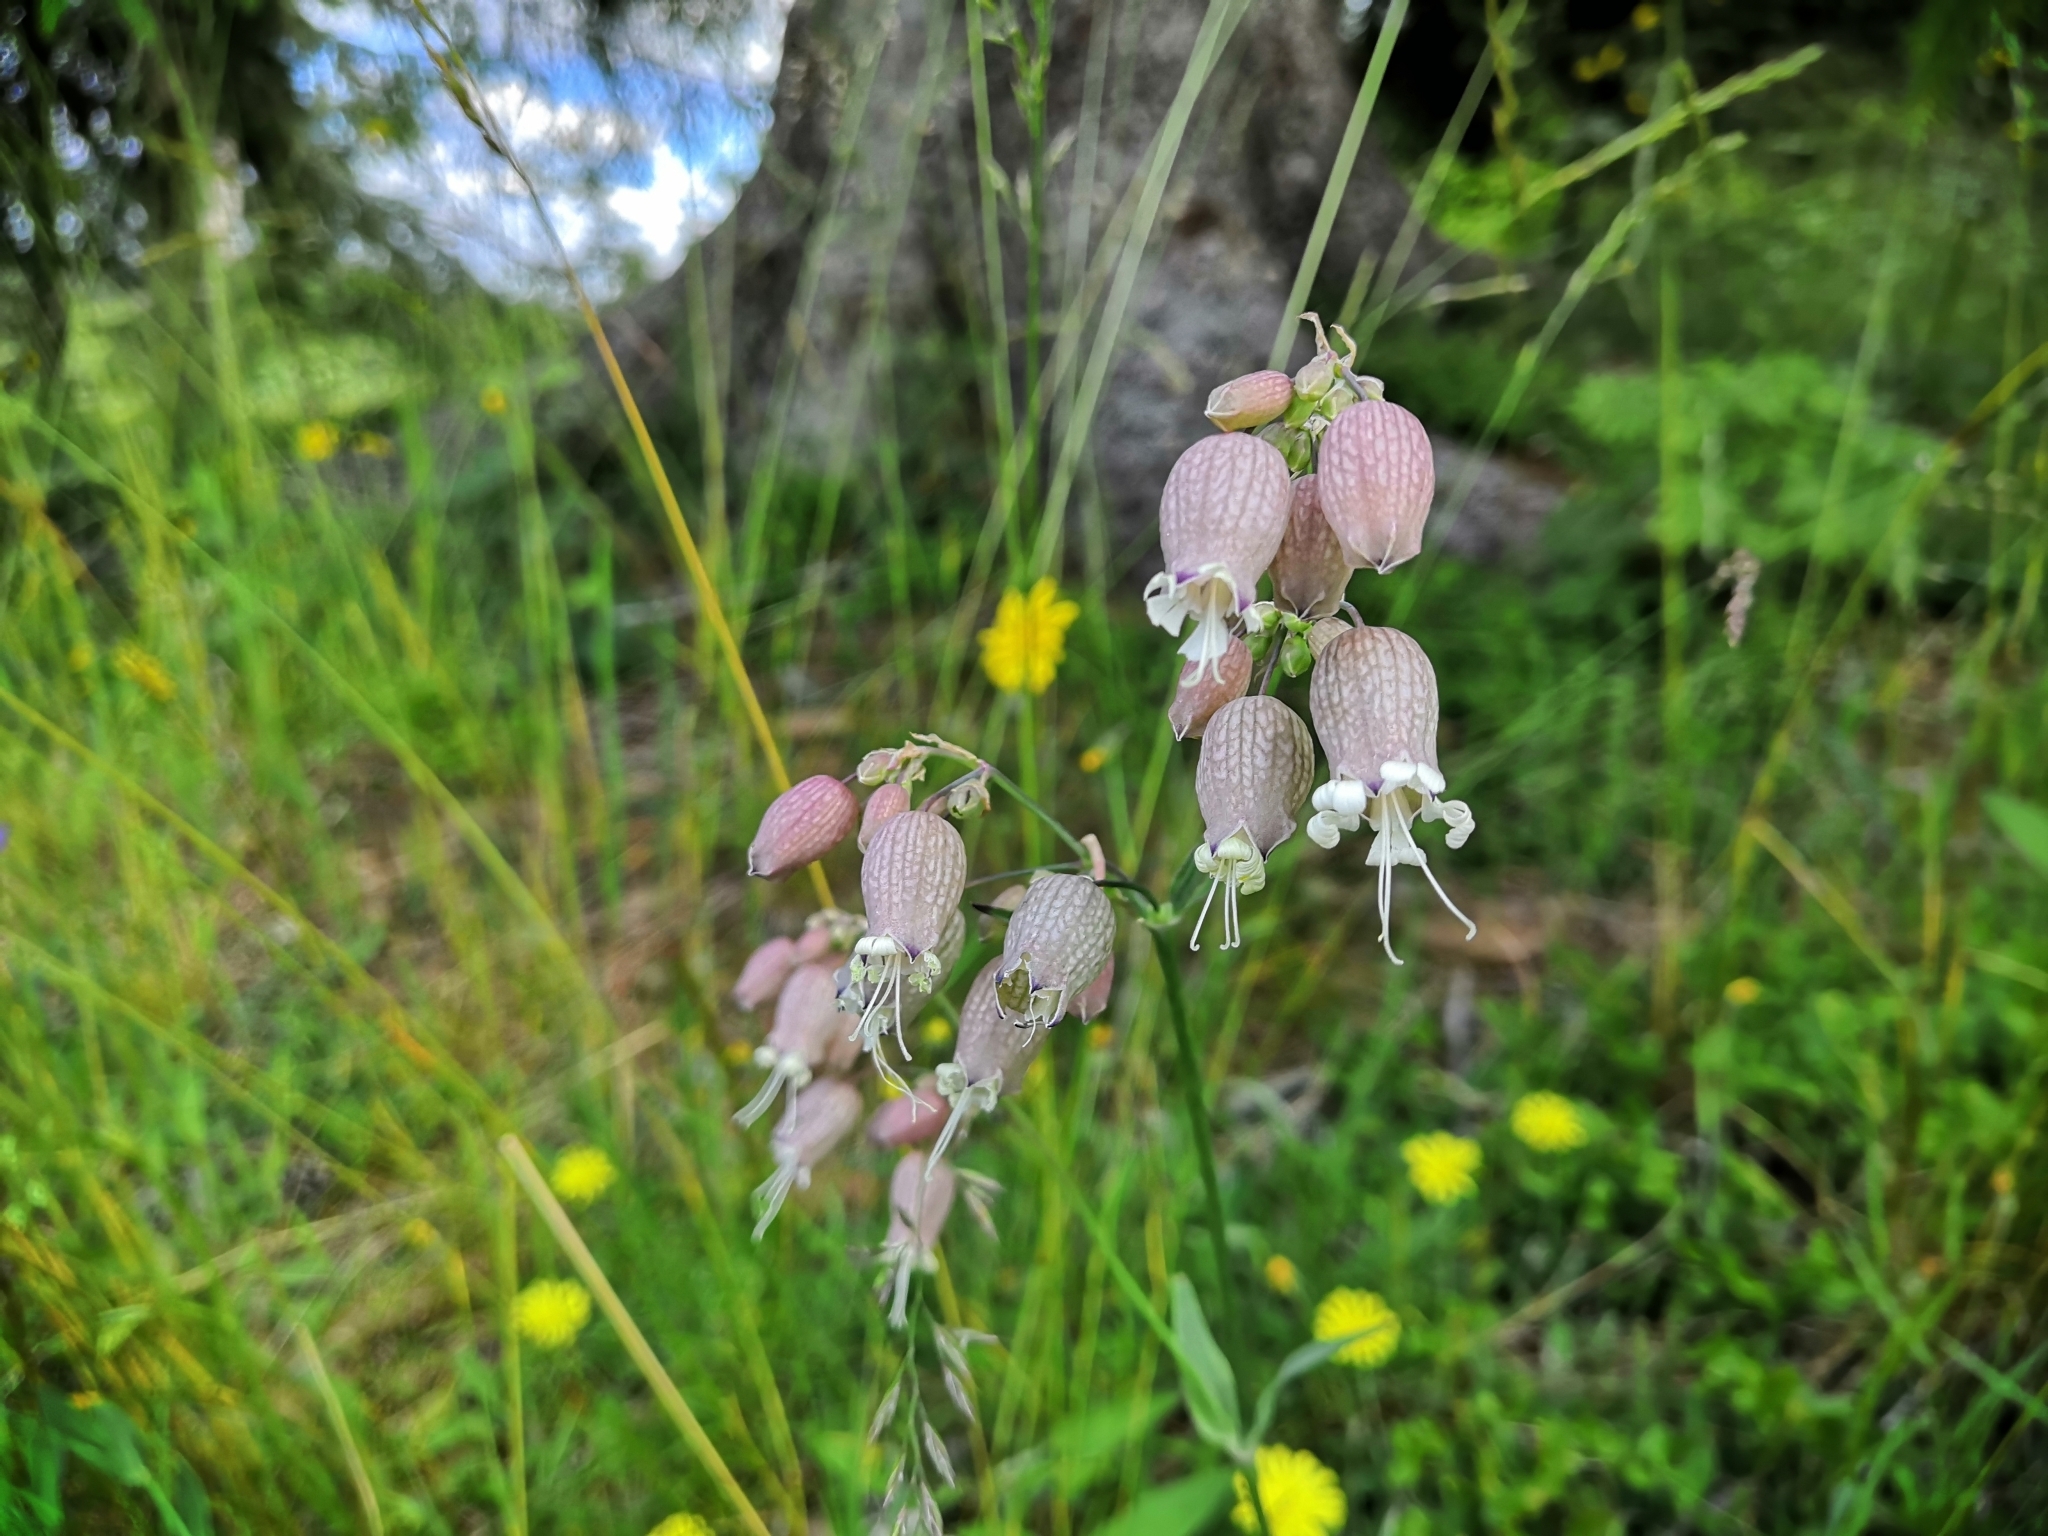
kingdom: Plantae
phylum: Tracheophyta
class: Magnoliopsida
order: Caryophyllales
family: Caryophyllaceae
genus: Silene
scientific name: Silene vulgaris
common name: Bladder campion
